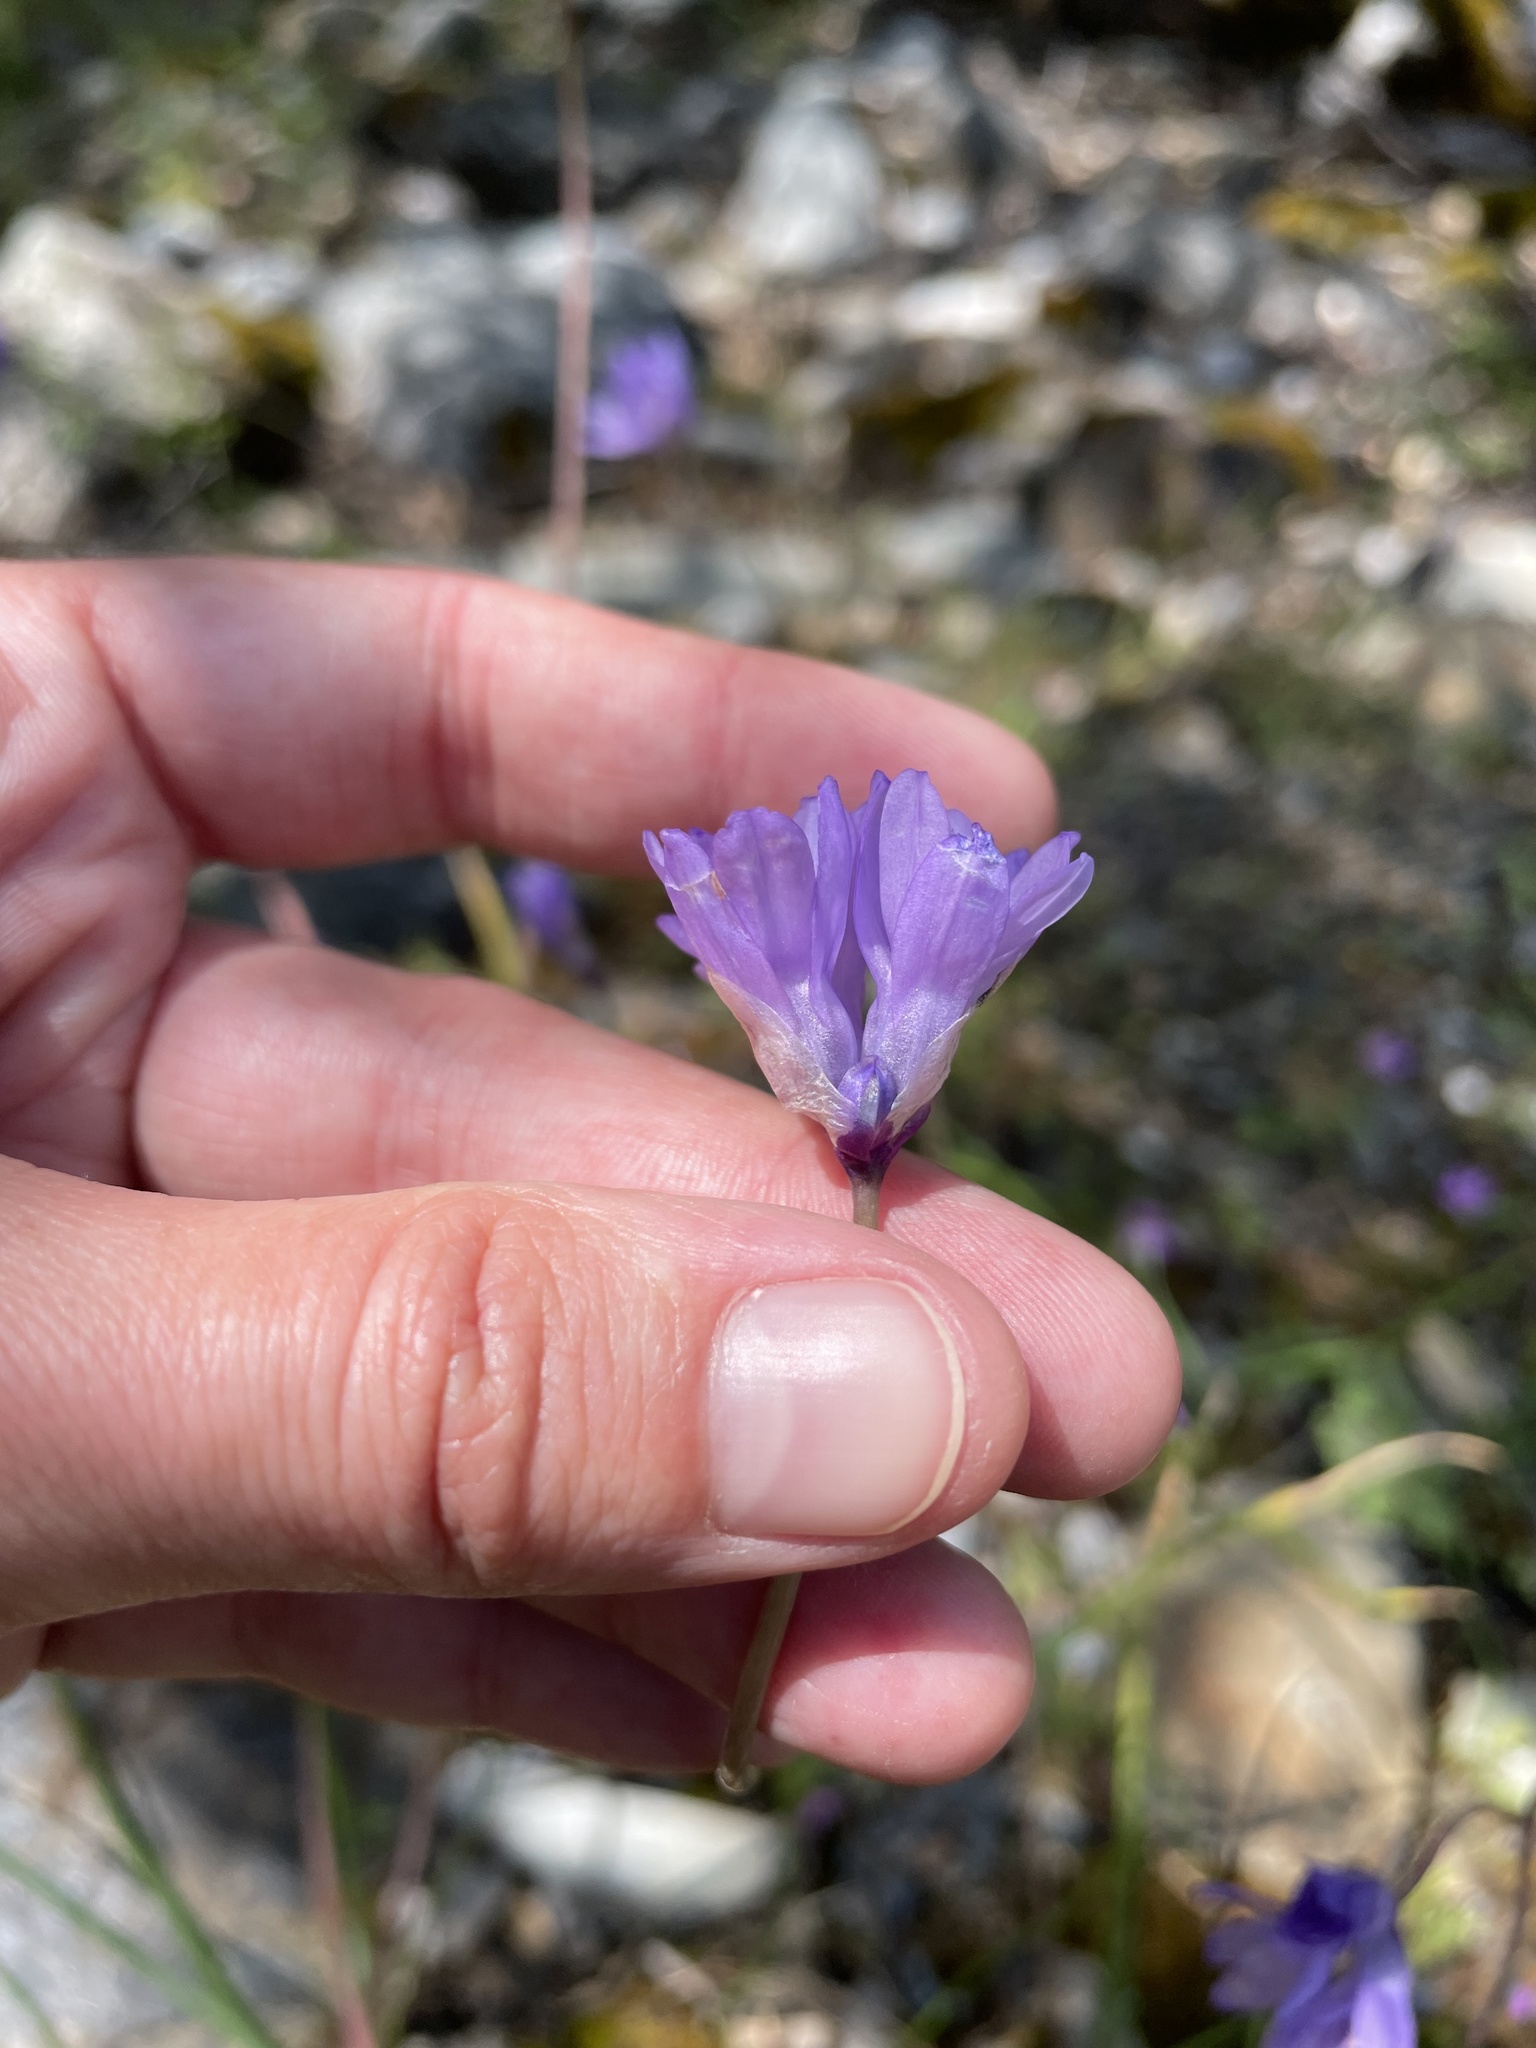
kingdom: Plantae
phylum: Tracheophyta
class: Liliopsida
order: Asparagales
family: Asparagaceae
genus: Dipterostemon
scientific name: Dipterostemon capitatus
